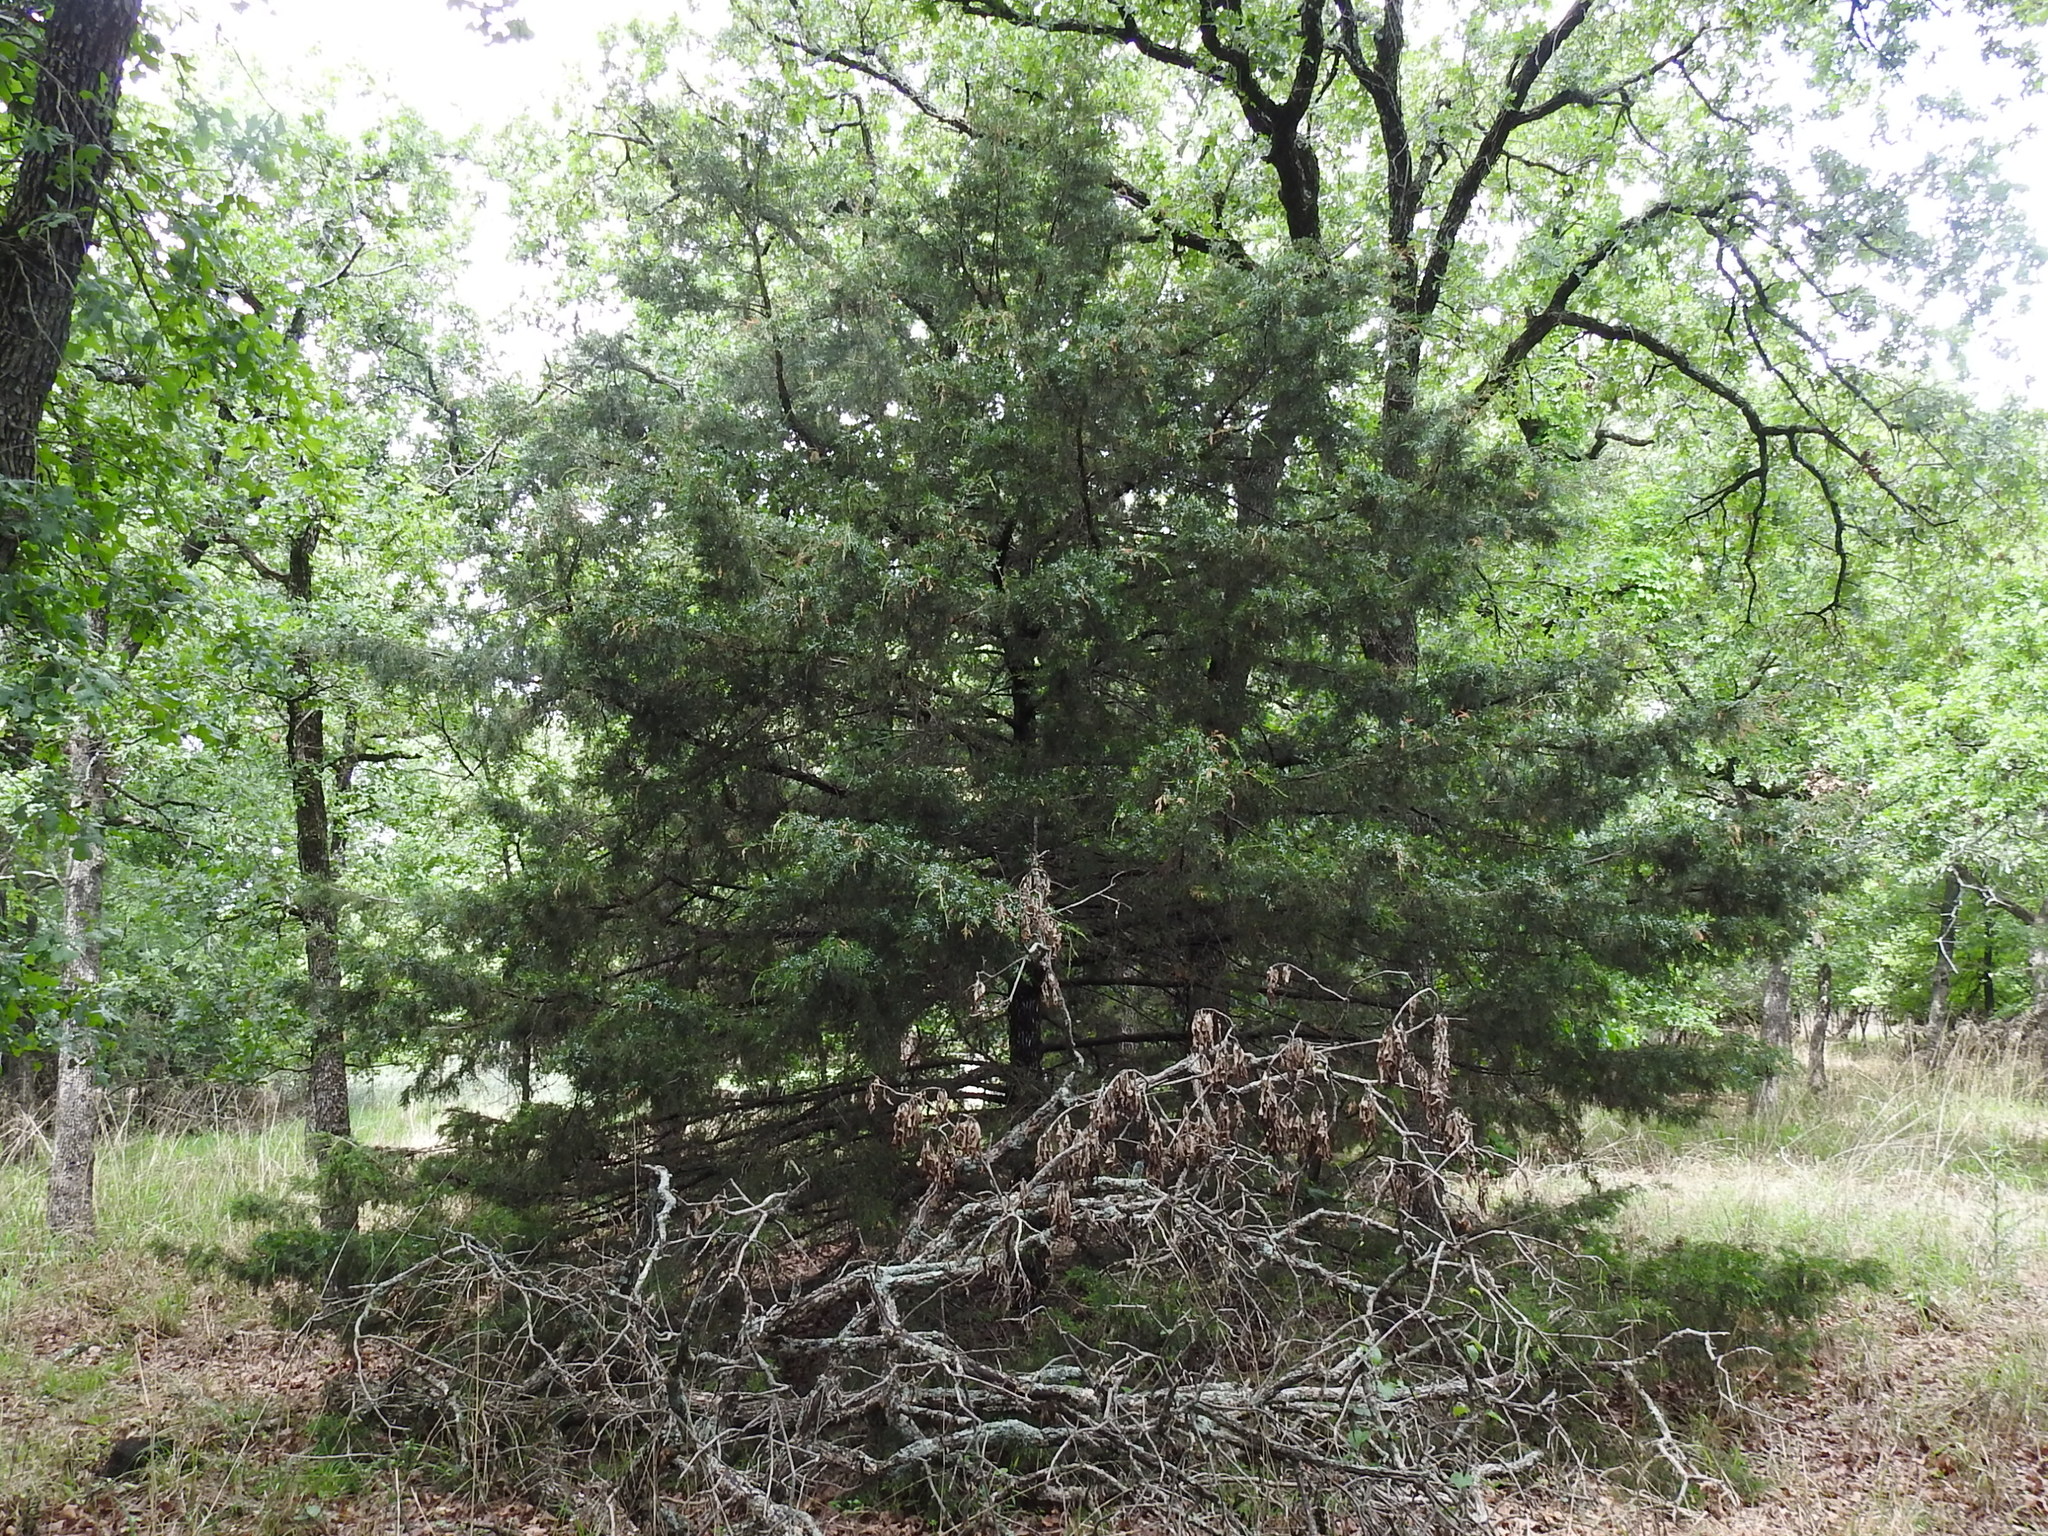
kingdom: Plantae
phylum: Tracheophyta
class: Pinopsida
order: Pinales
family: Cupressaceae
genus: Juniperus
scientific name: Juniperus virginiana
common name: Red juniper
